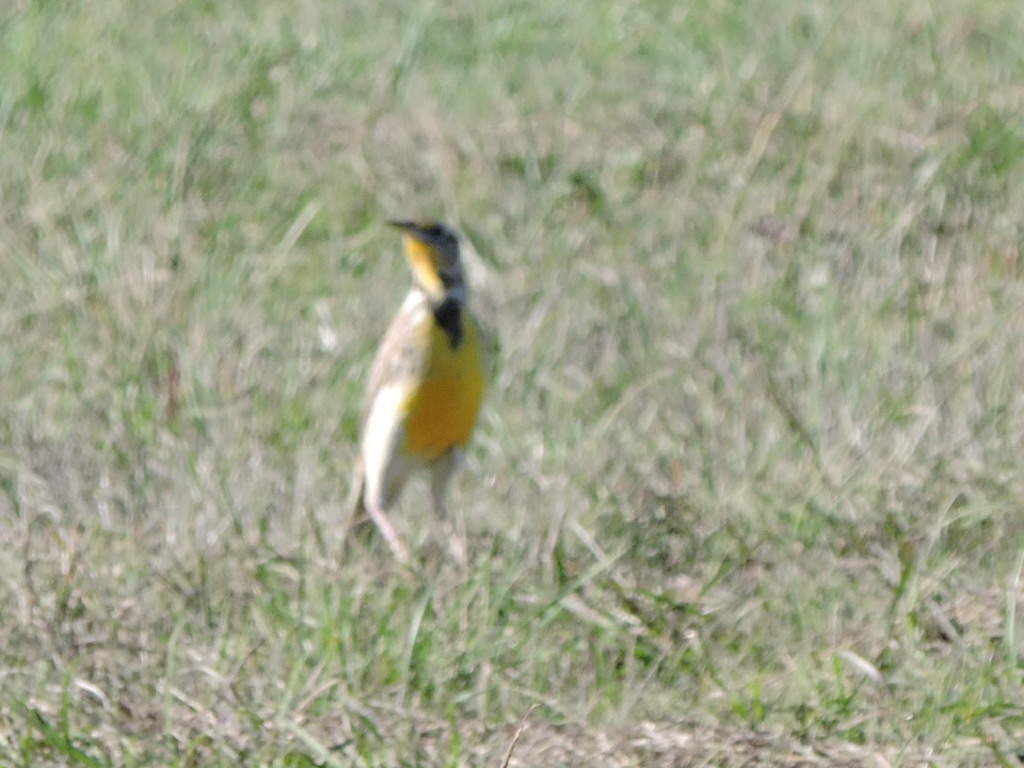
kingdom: Animalia
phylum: Chordata
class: Aves
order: Passeriformes
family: Icteridae
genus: Sturnella
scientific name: Sturnella
